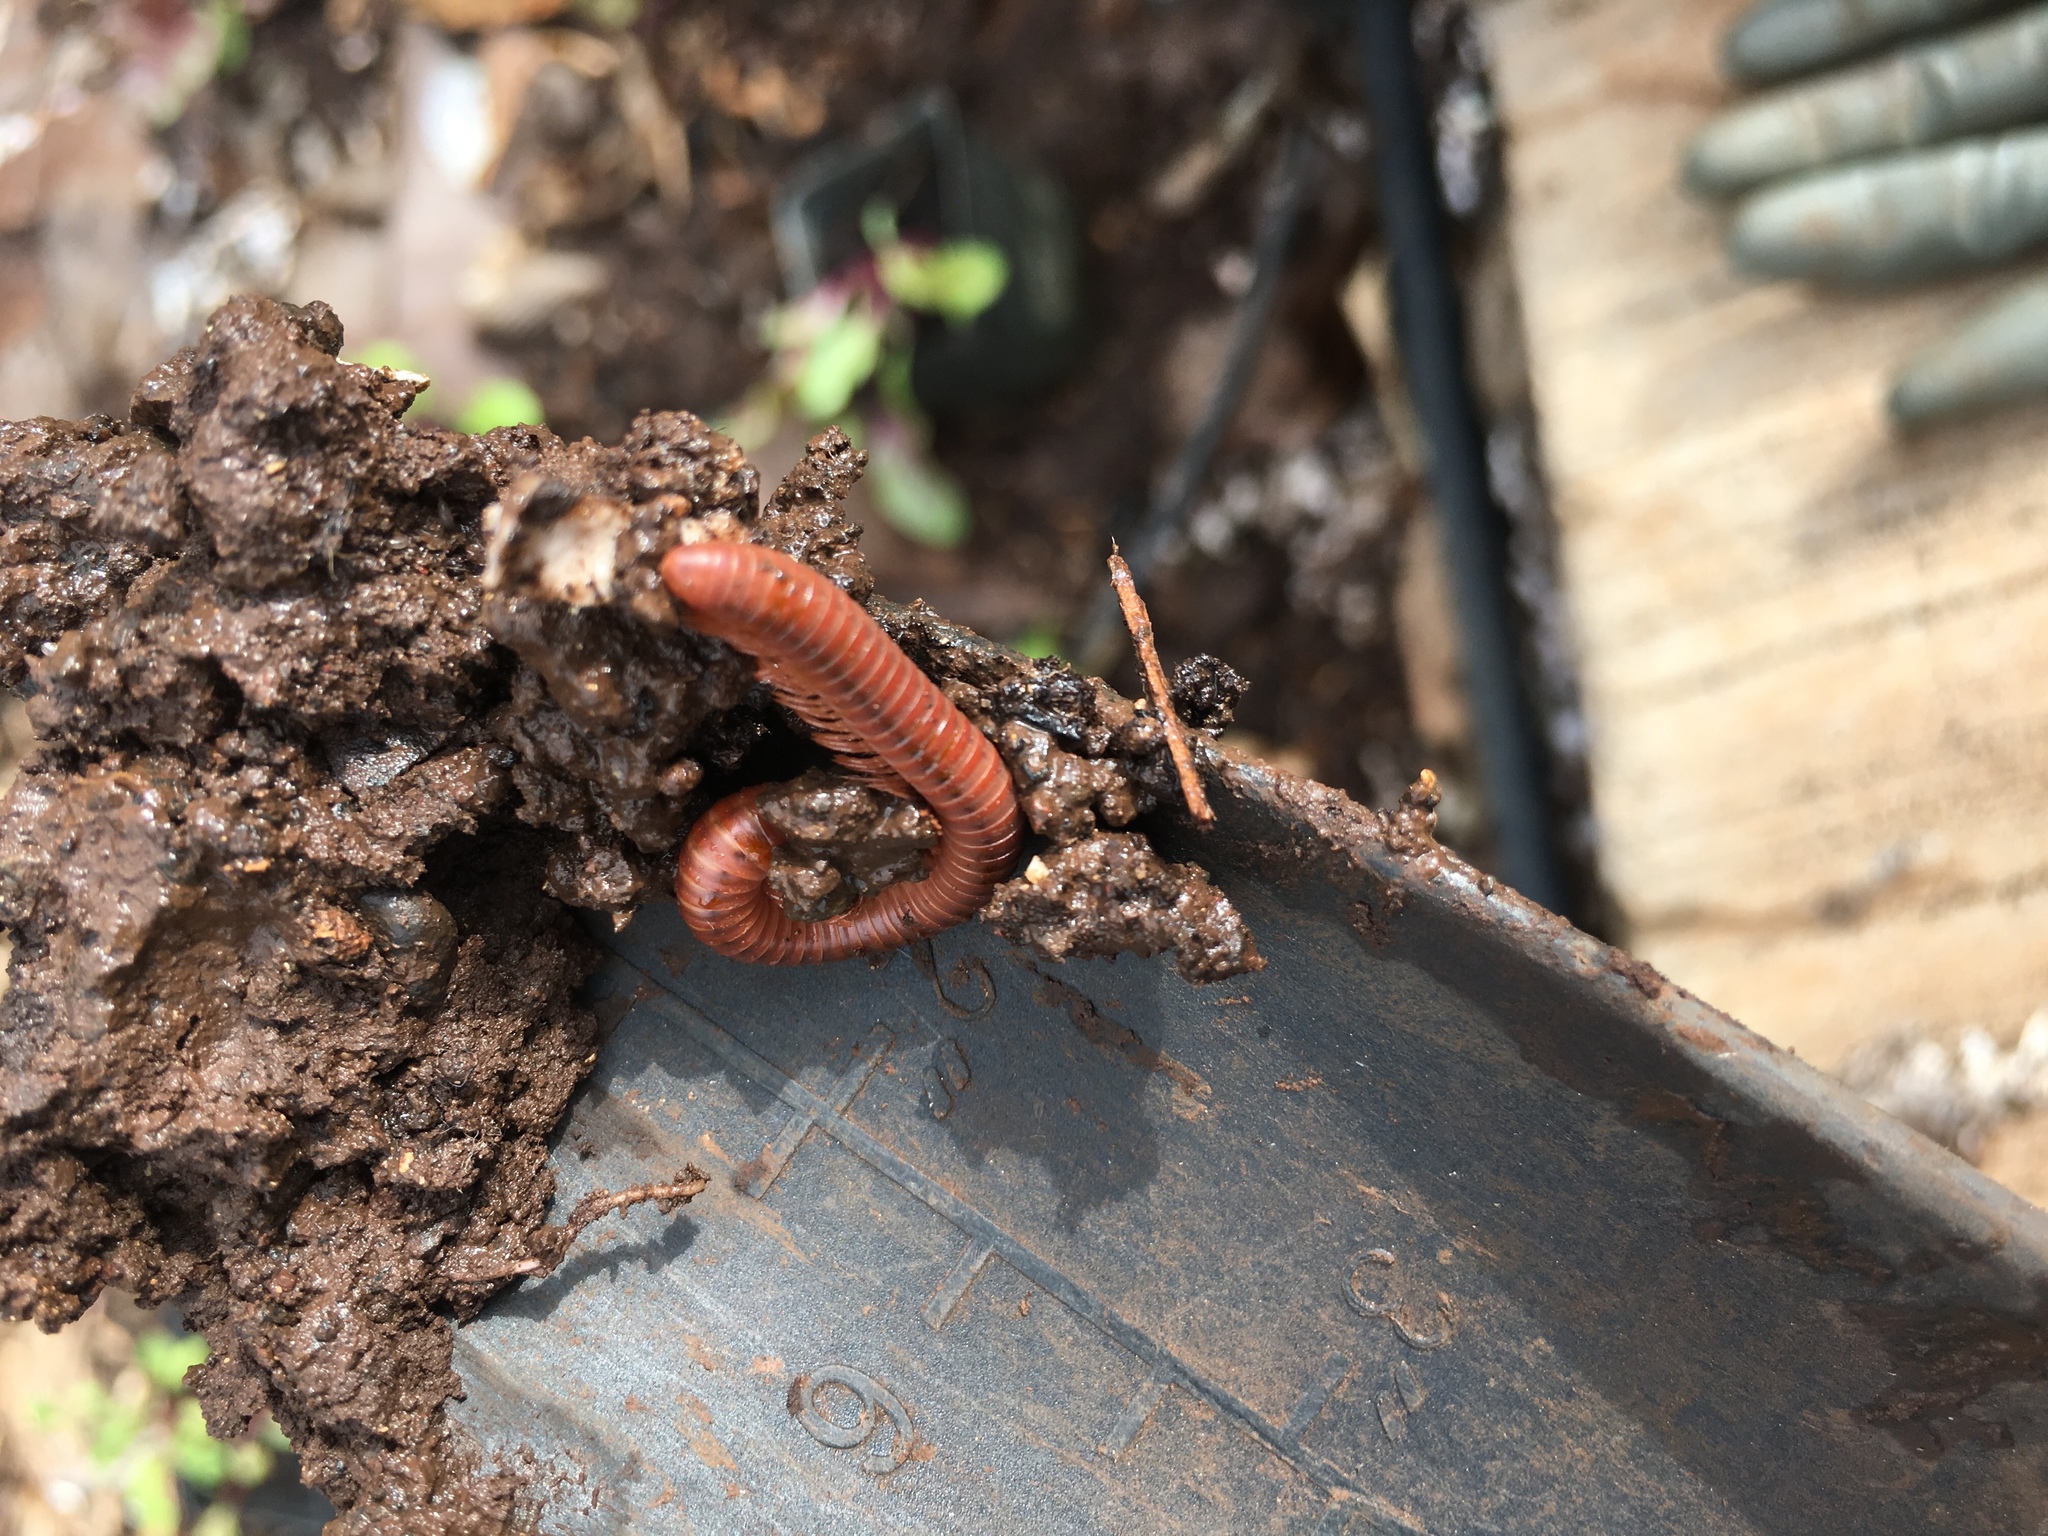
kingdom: Animalia
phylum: Arthropoda
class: Diplopoda
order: Spirobolida
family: Pachybolidae
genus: Trigoniulus
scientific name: Trigoniulus corallinus
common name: Millipede
